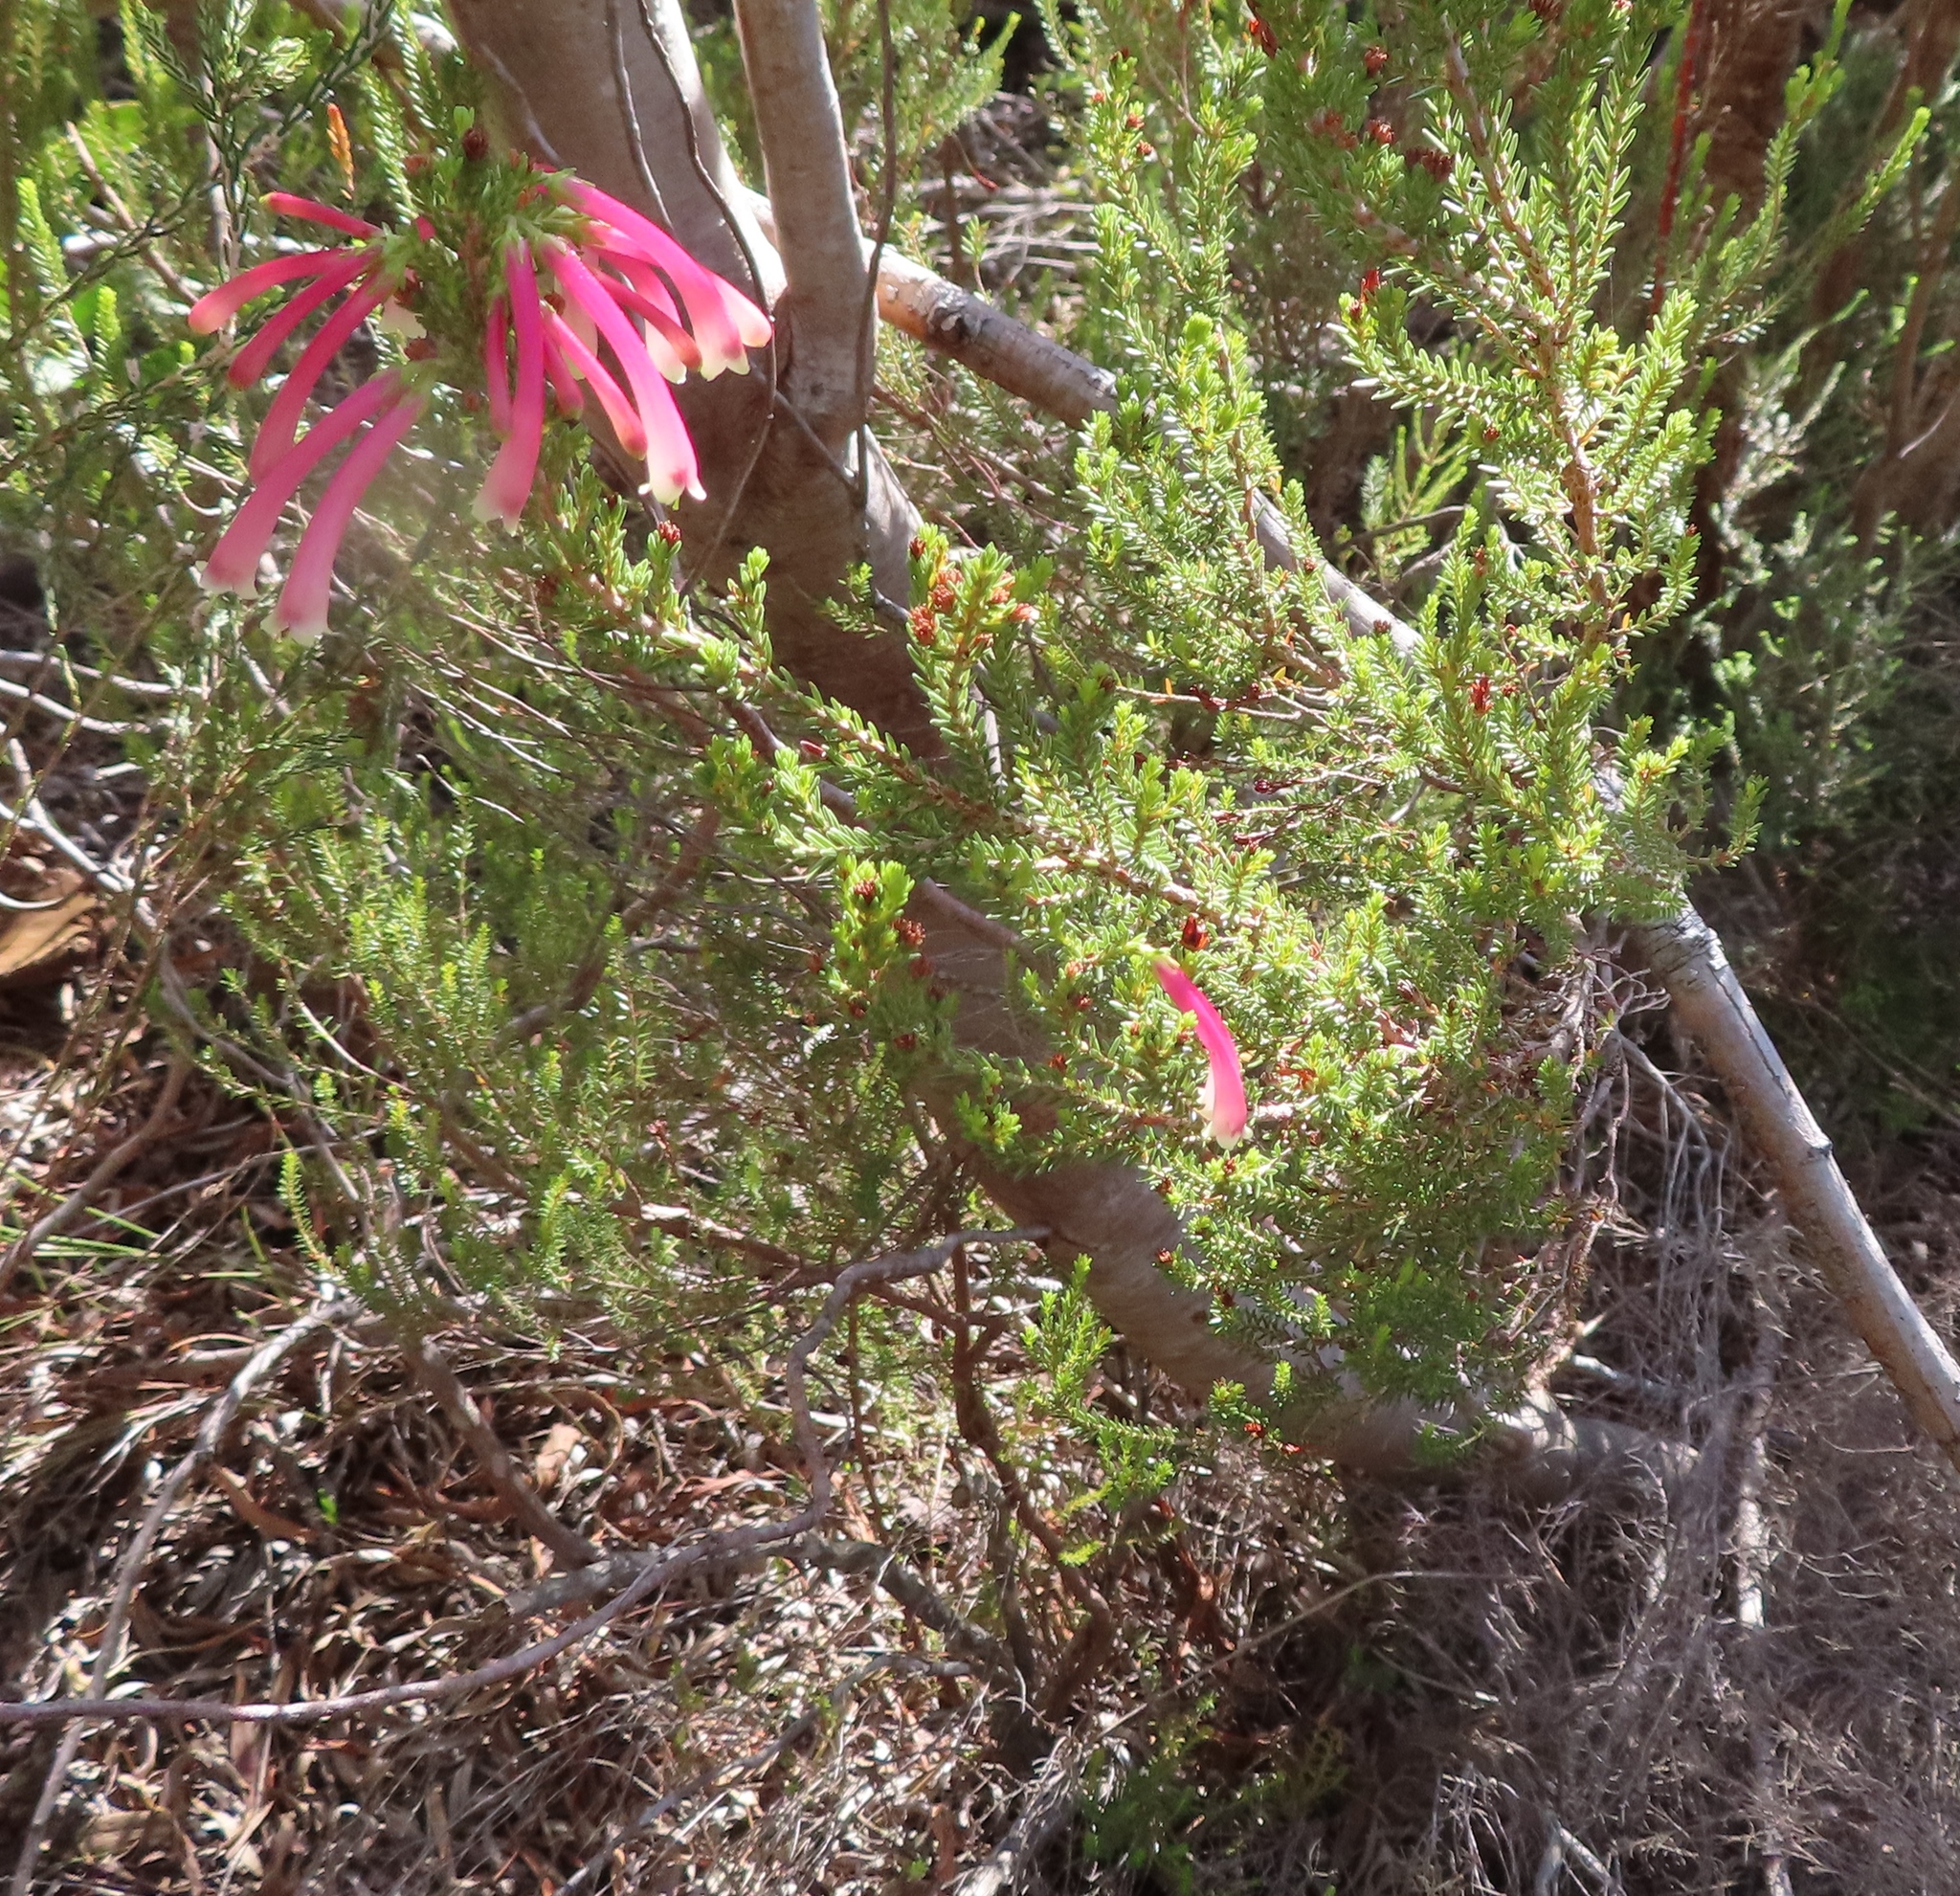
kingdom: Plantae
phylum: Tracheophyta
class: Magnoliopsida
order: Ericales
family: Ericaceae
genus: Erica
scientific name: Erica discolor
